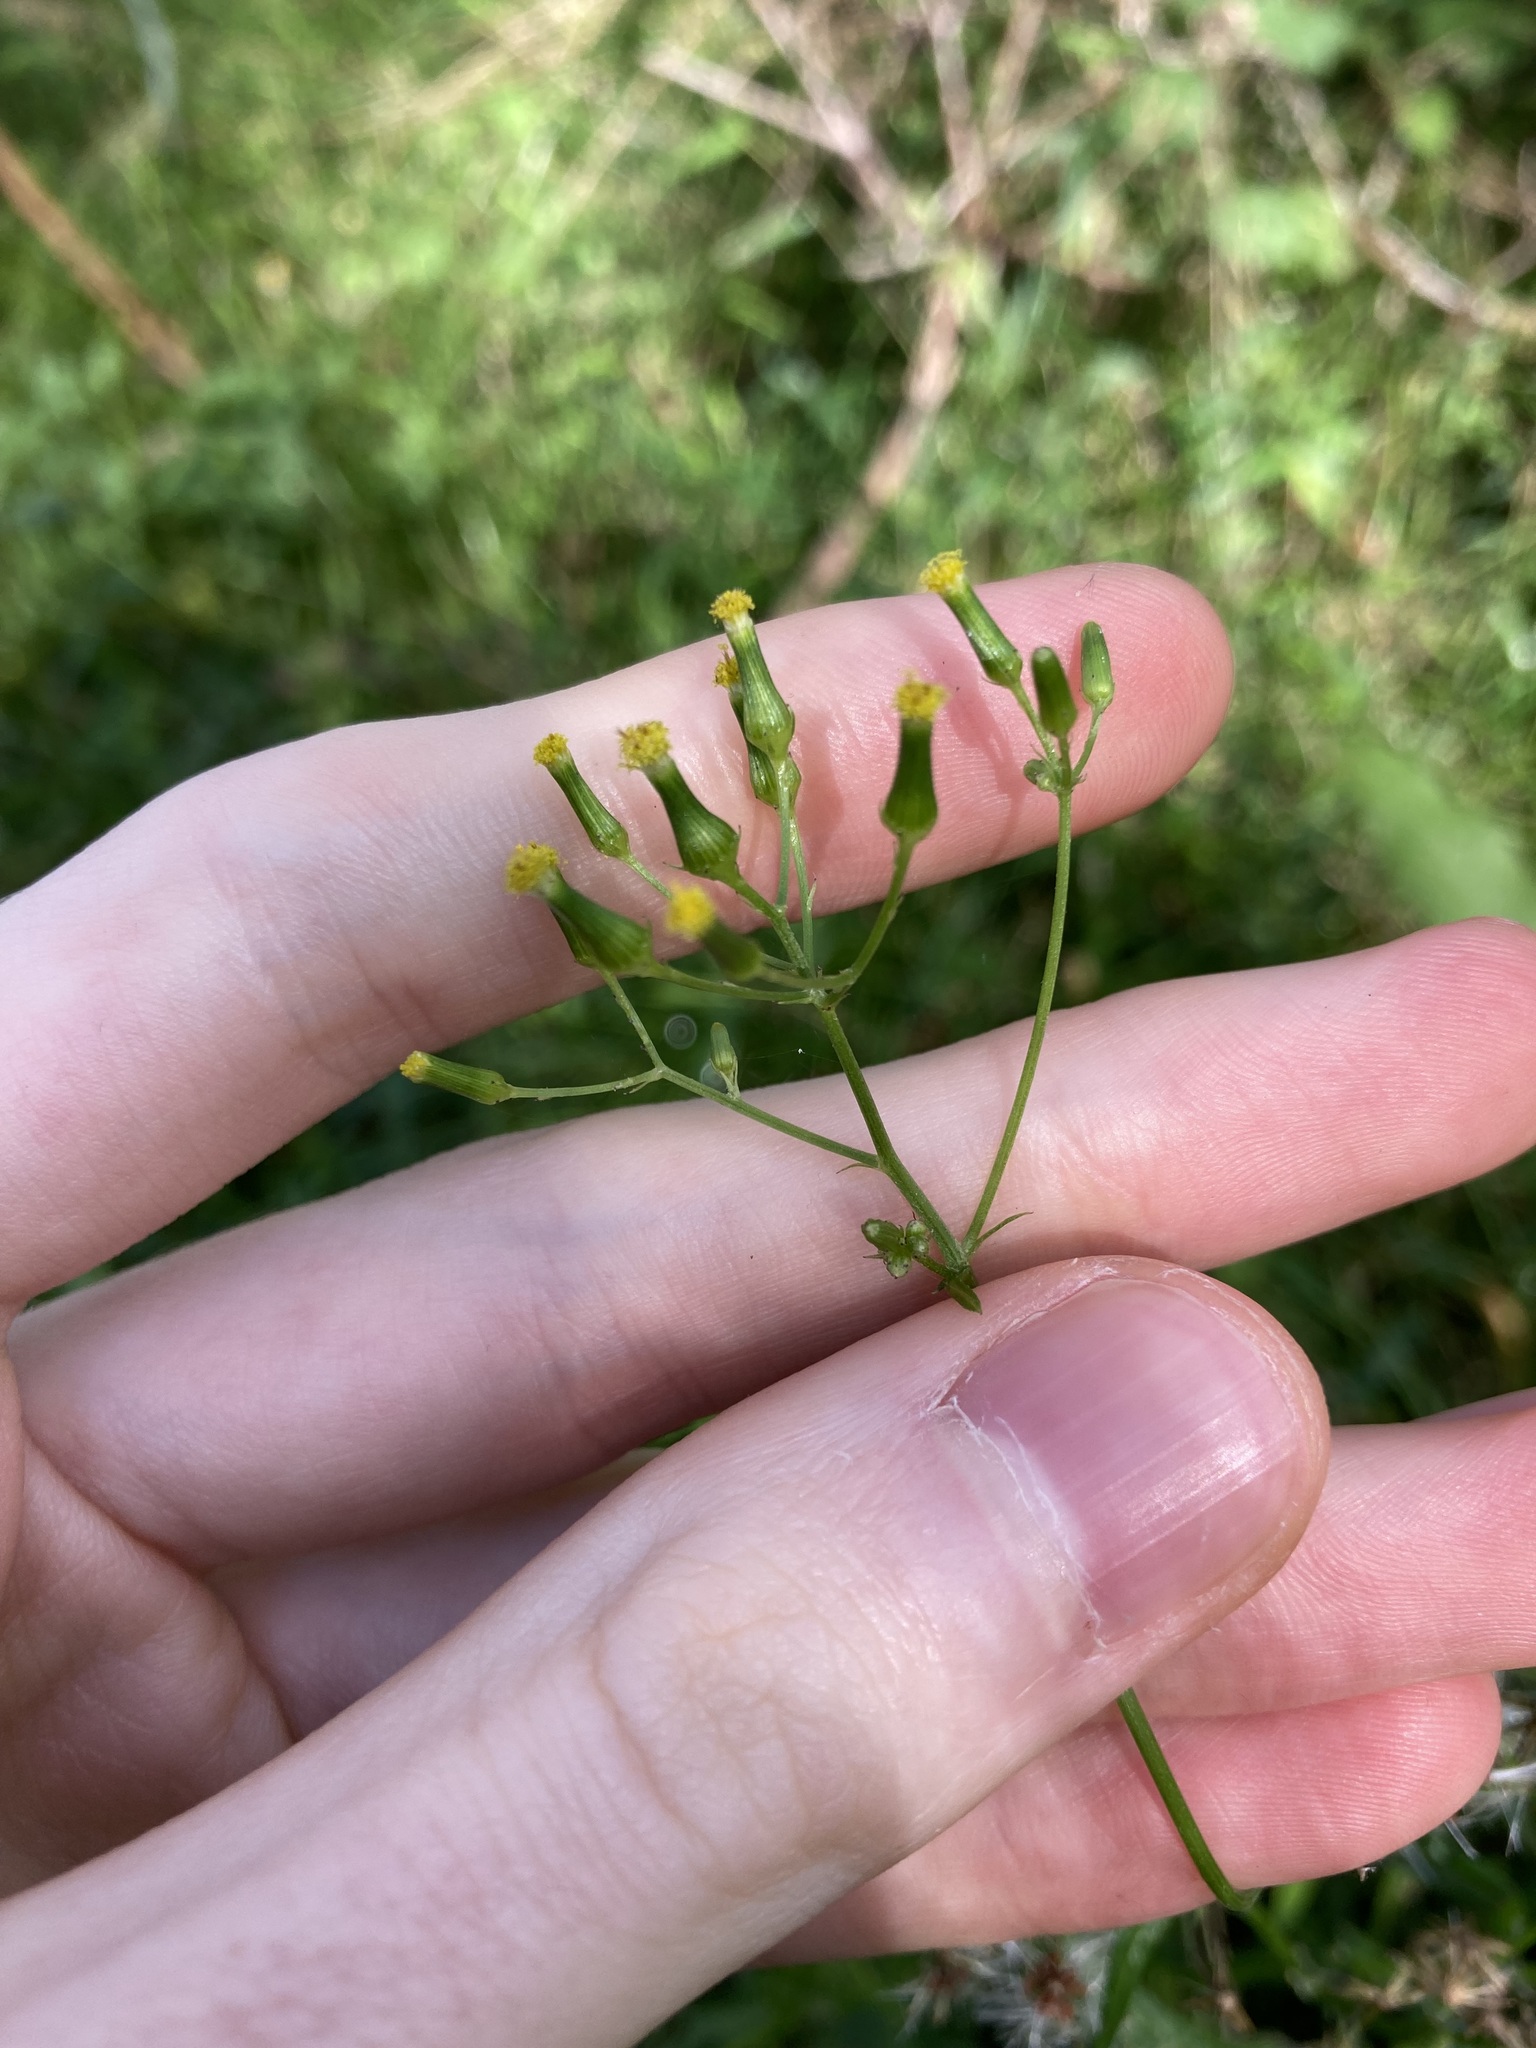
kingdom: Plantae
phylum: Tracheophyta
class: Magnoliopsida
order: Asterales
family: Asteraceae
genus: Senecio
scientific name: Senecio hispidulus
